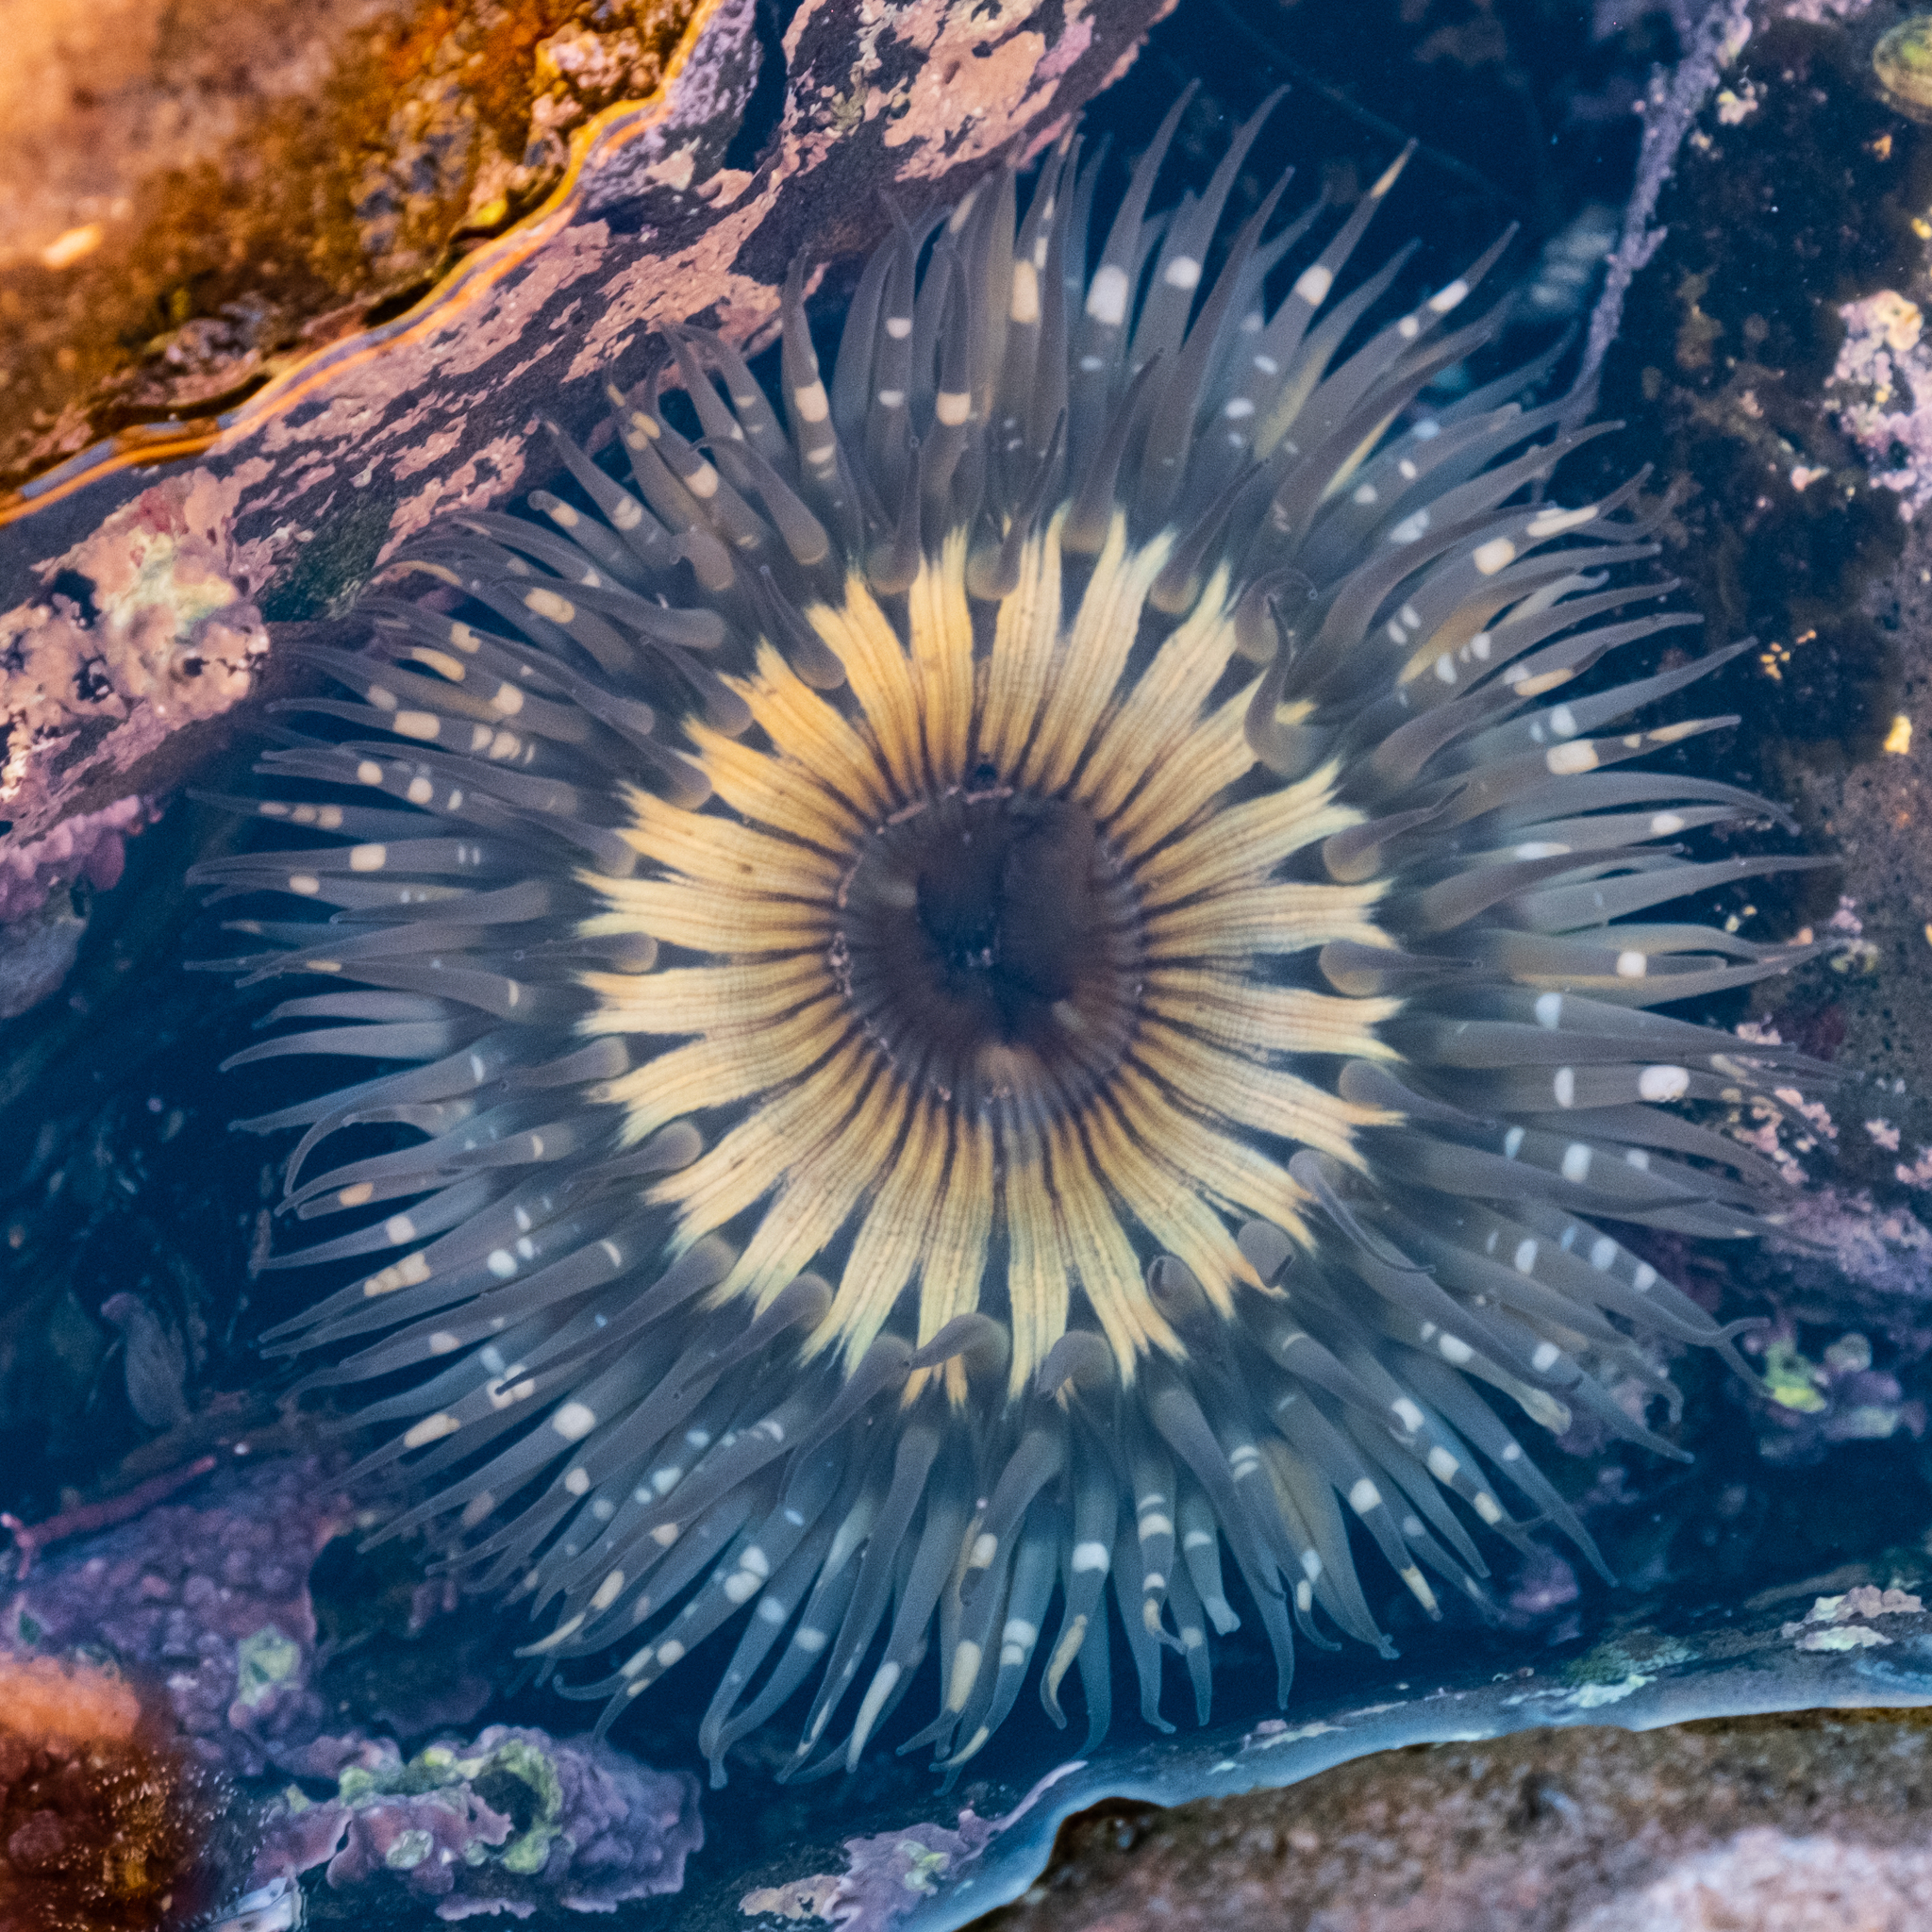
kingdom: Animalia
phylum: Cnidaria
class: Anthozoa
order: Actiniaria
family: Actiniidae
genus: Anthopleura
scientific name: Anthopleura sola
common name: Sun anemone
